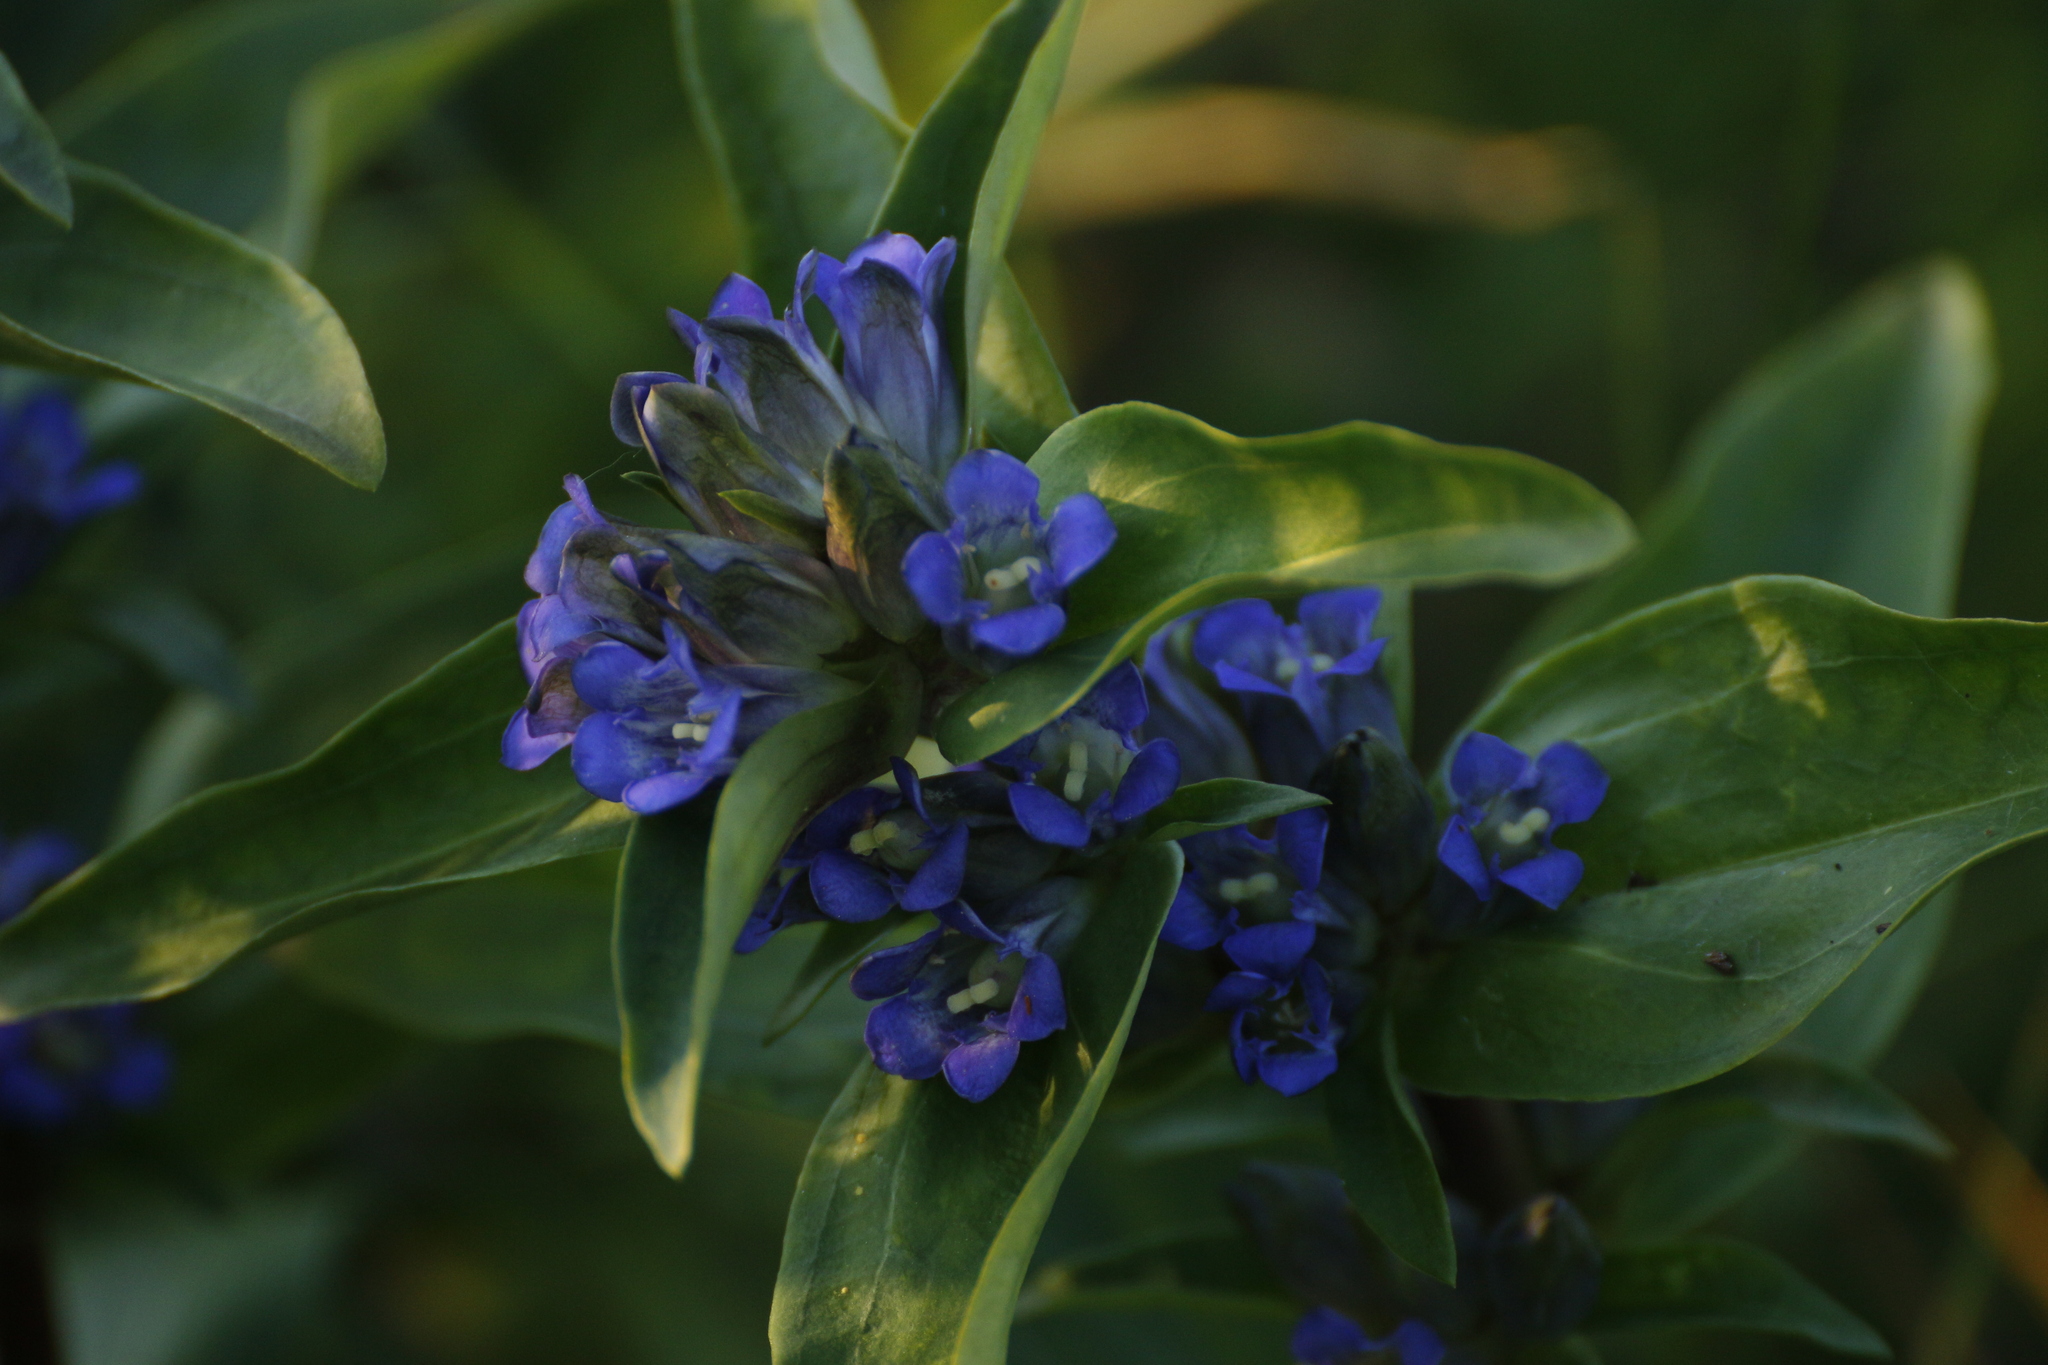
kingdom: Plantae
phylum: Tracheophyta
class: Magnoliopsida
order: Gentianales
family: Gentianaceae
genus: Gentiana
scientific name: Gentiana cruciata
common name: Cross gentian
